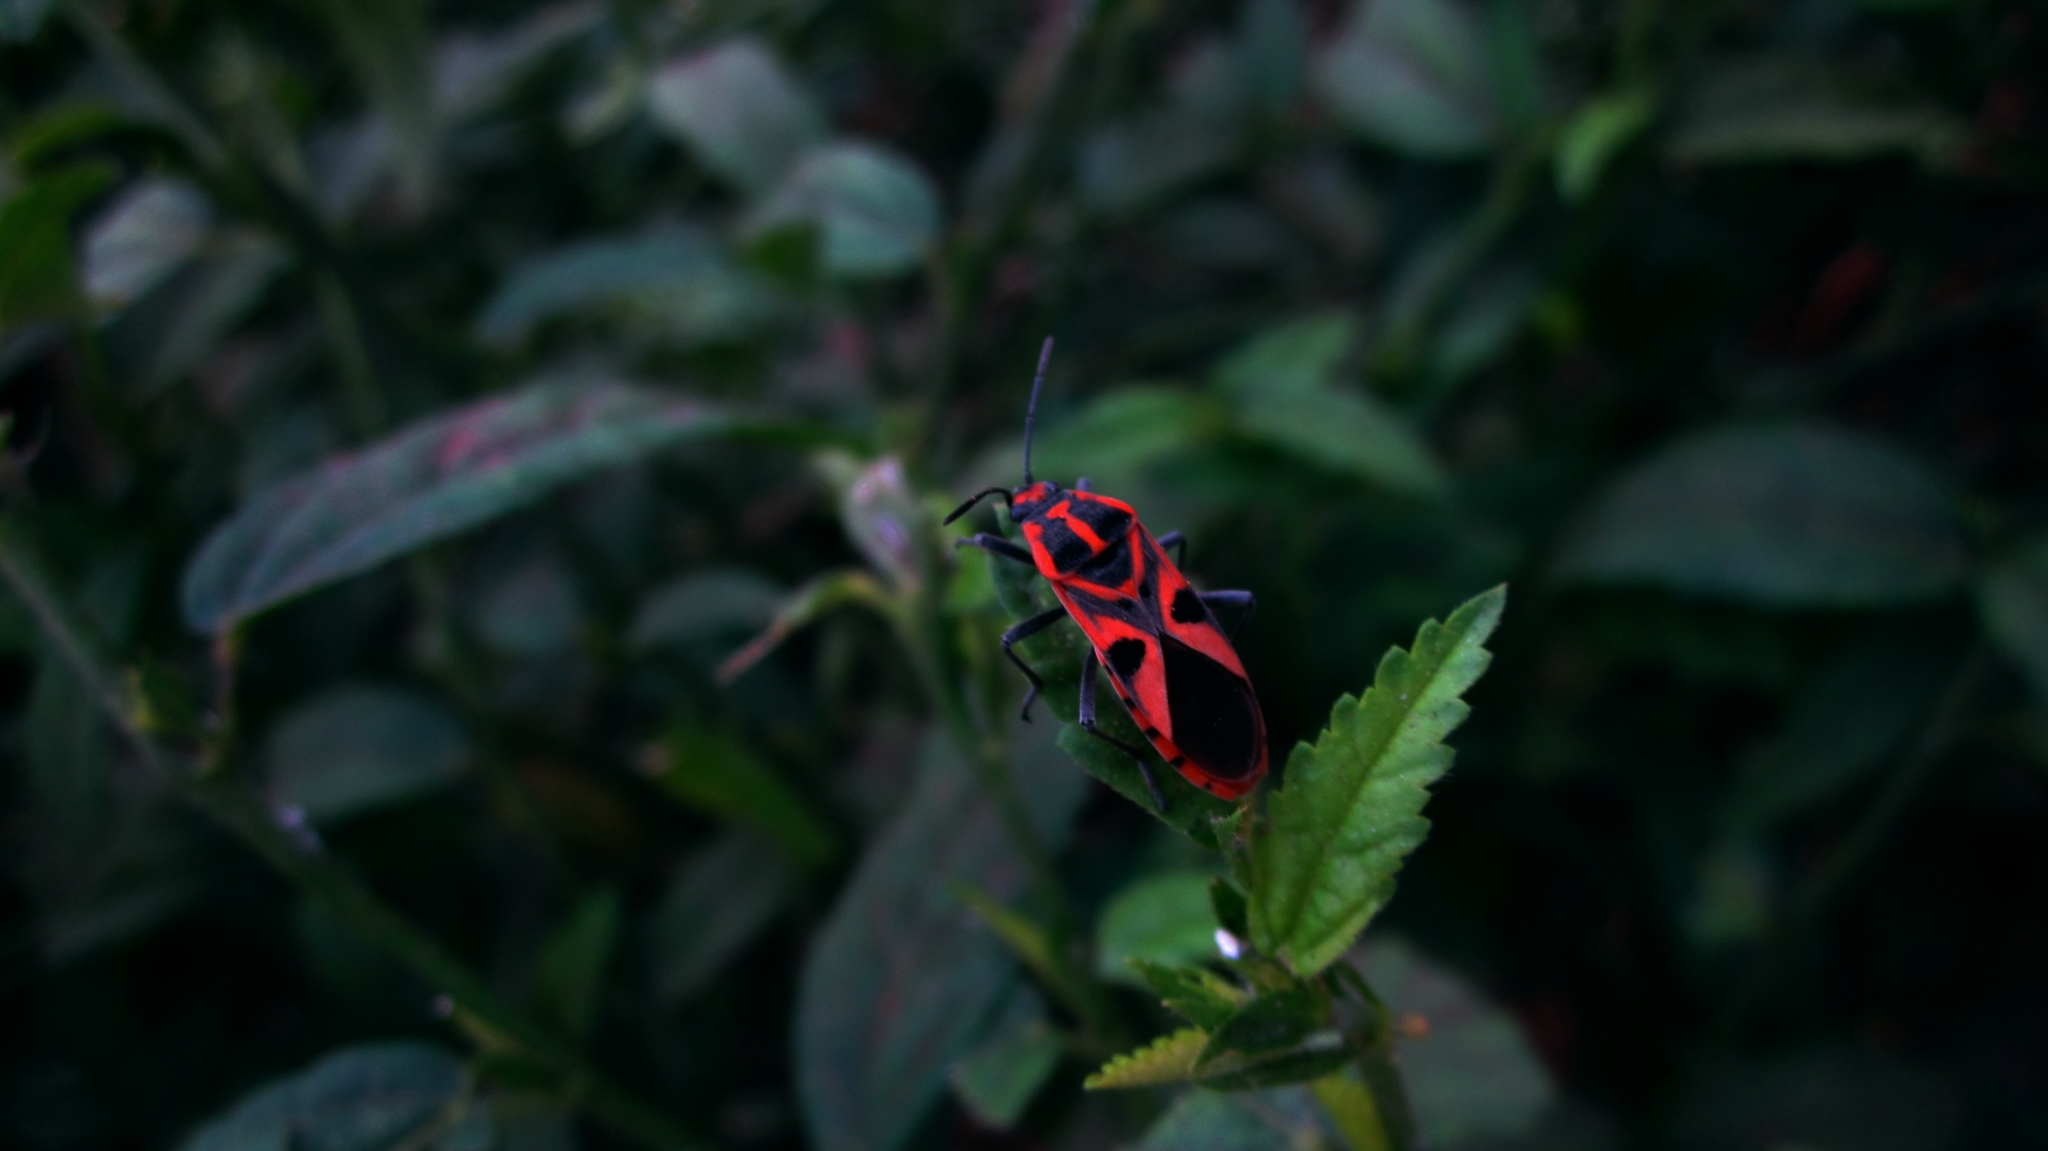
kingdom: Animalia
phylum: Arthropoda
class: Insecta
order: Hemiptera
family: Lygaeidae
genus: Spilostethus
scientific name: Spilostethus hospes
